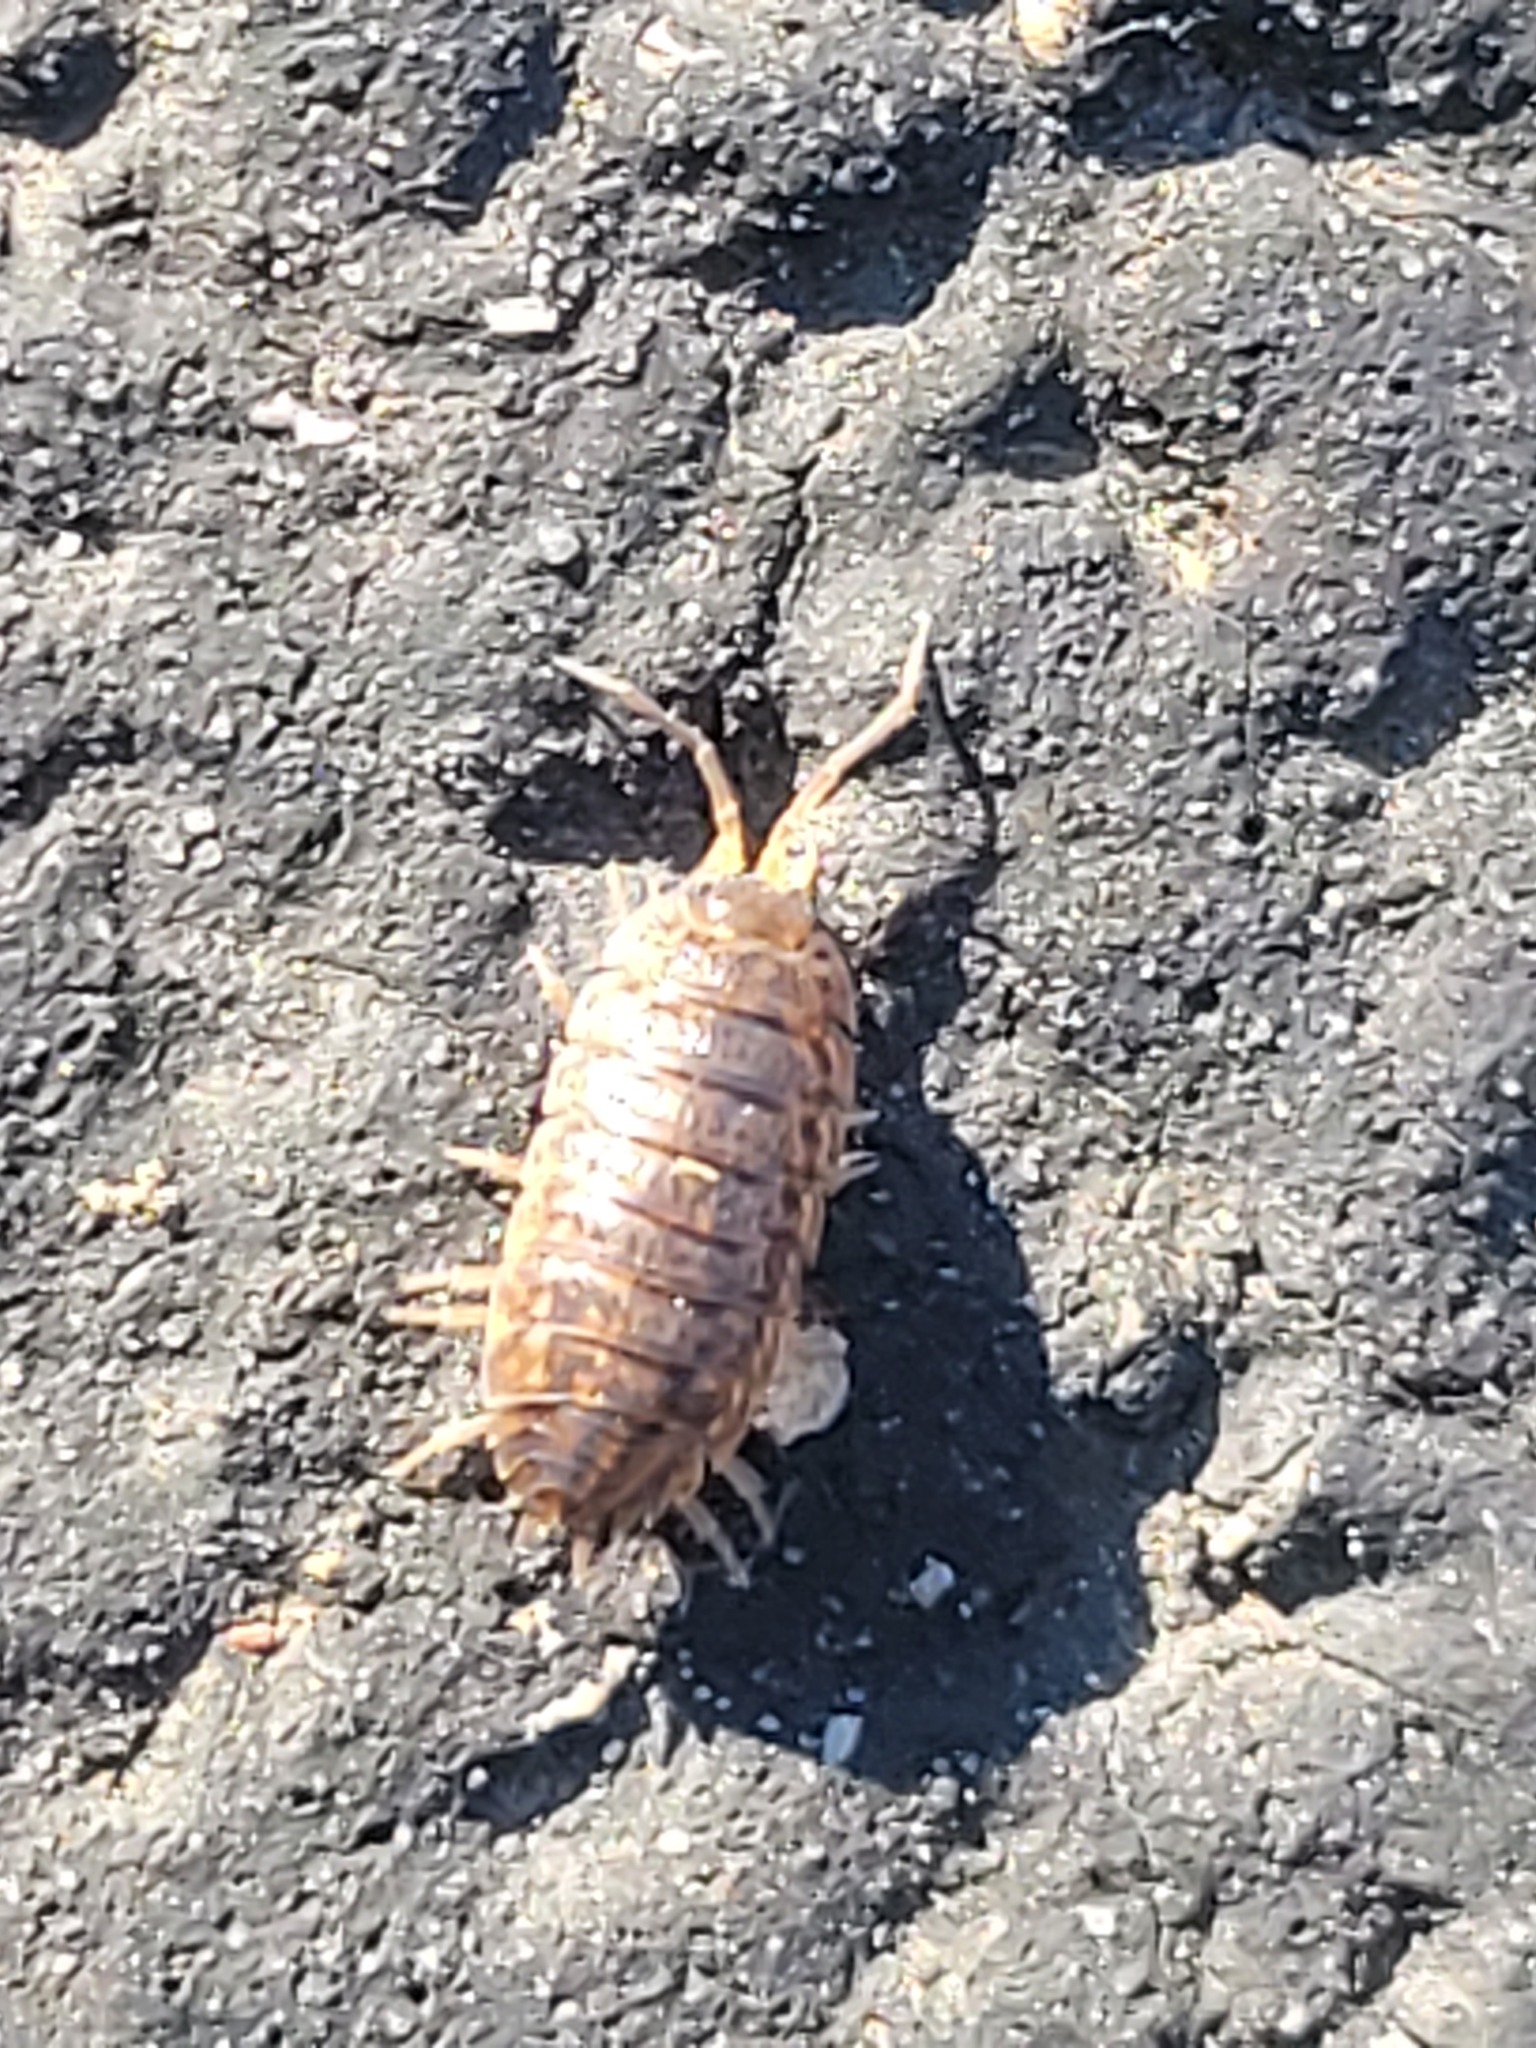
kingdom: Animalia
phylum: Arthropoda
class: Malacostraca
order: Isopoda
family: Trachelipodidae
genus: Trachelipus
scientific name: Trachelipus rathkii
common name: Isopod
